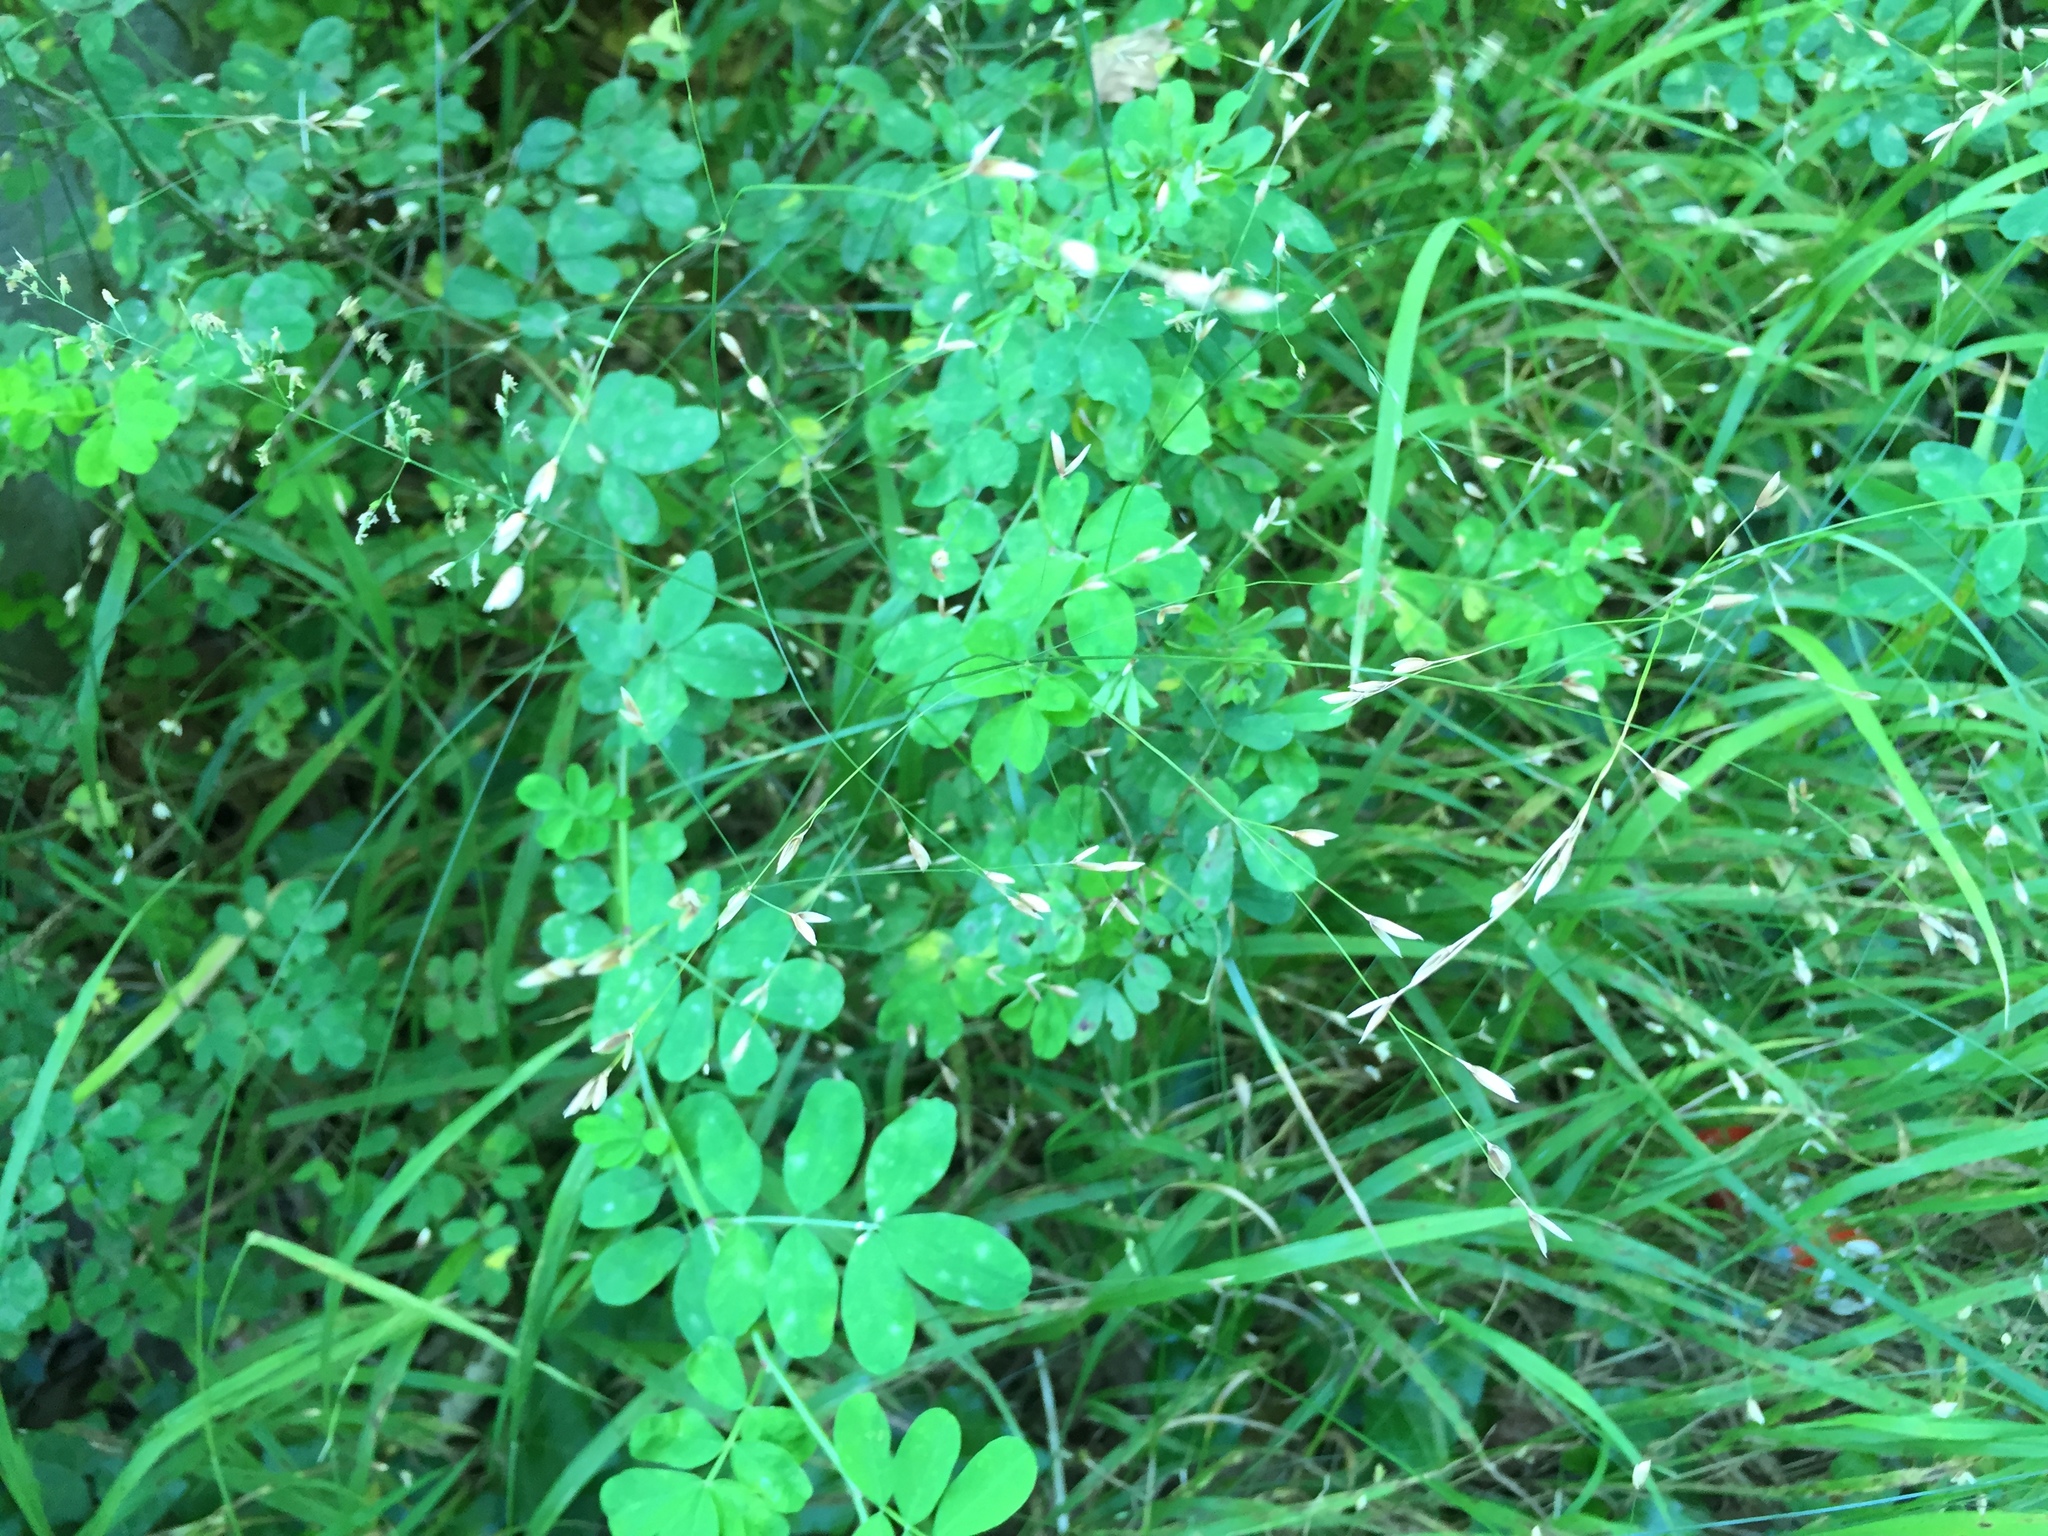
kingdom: Plantae
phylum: Tracheophyta
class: Liliopsida
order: Poales
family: Poaceae
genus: Melica
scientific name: Melica uniflora
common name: Wood melick
